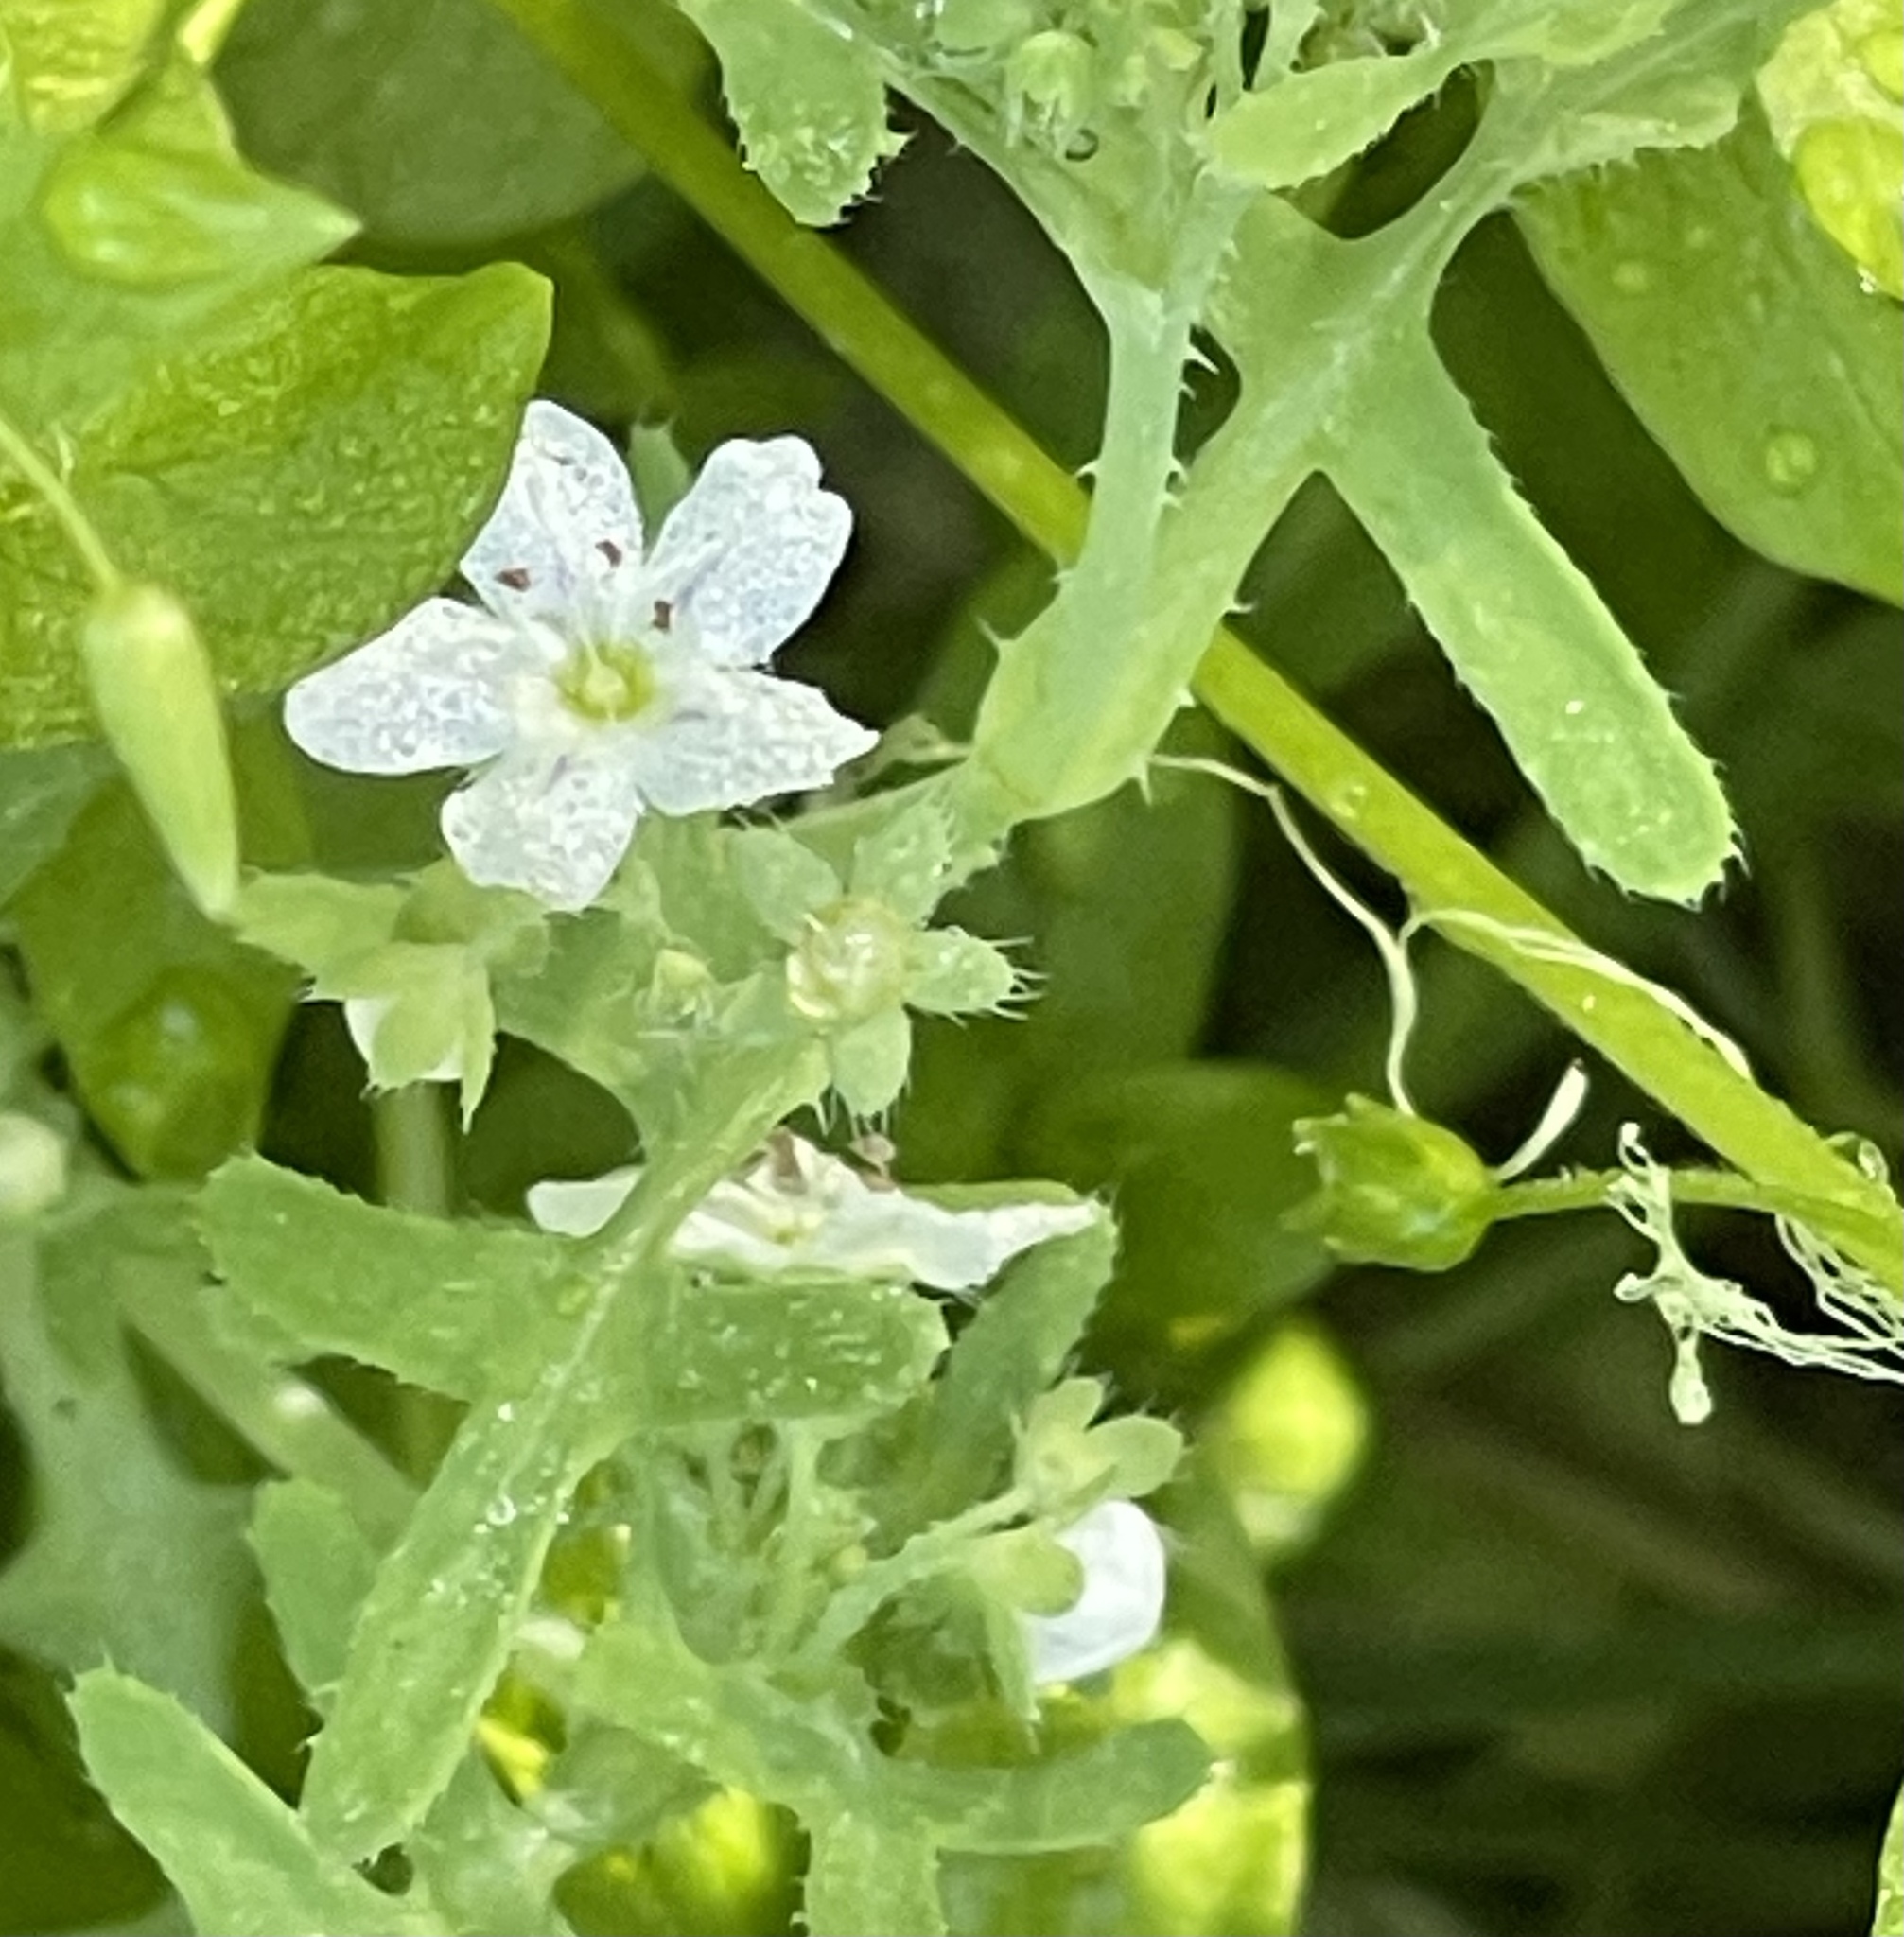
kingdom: Plantae
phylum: Tracheophyta
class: Magnoliopsida
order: Boraginales
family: Hydrophyllaceae
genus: Pholistoma
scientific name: Pholistoma membranaceum
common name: White fiesta-flower
